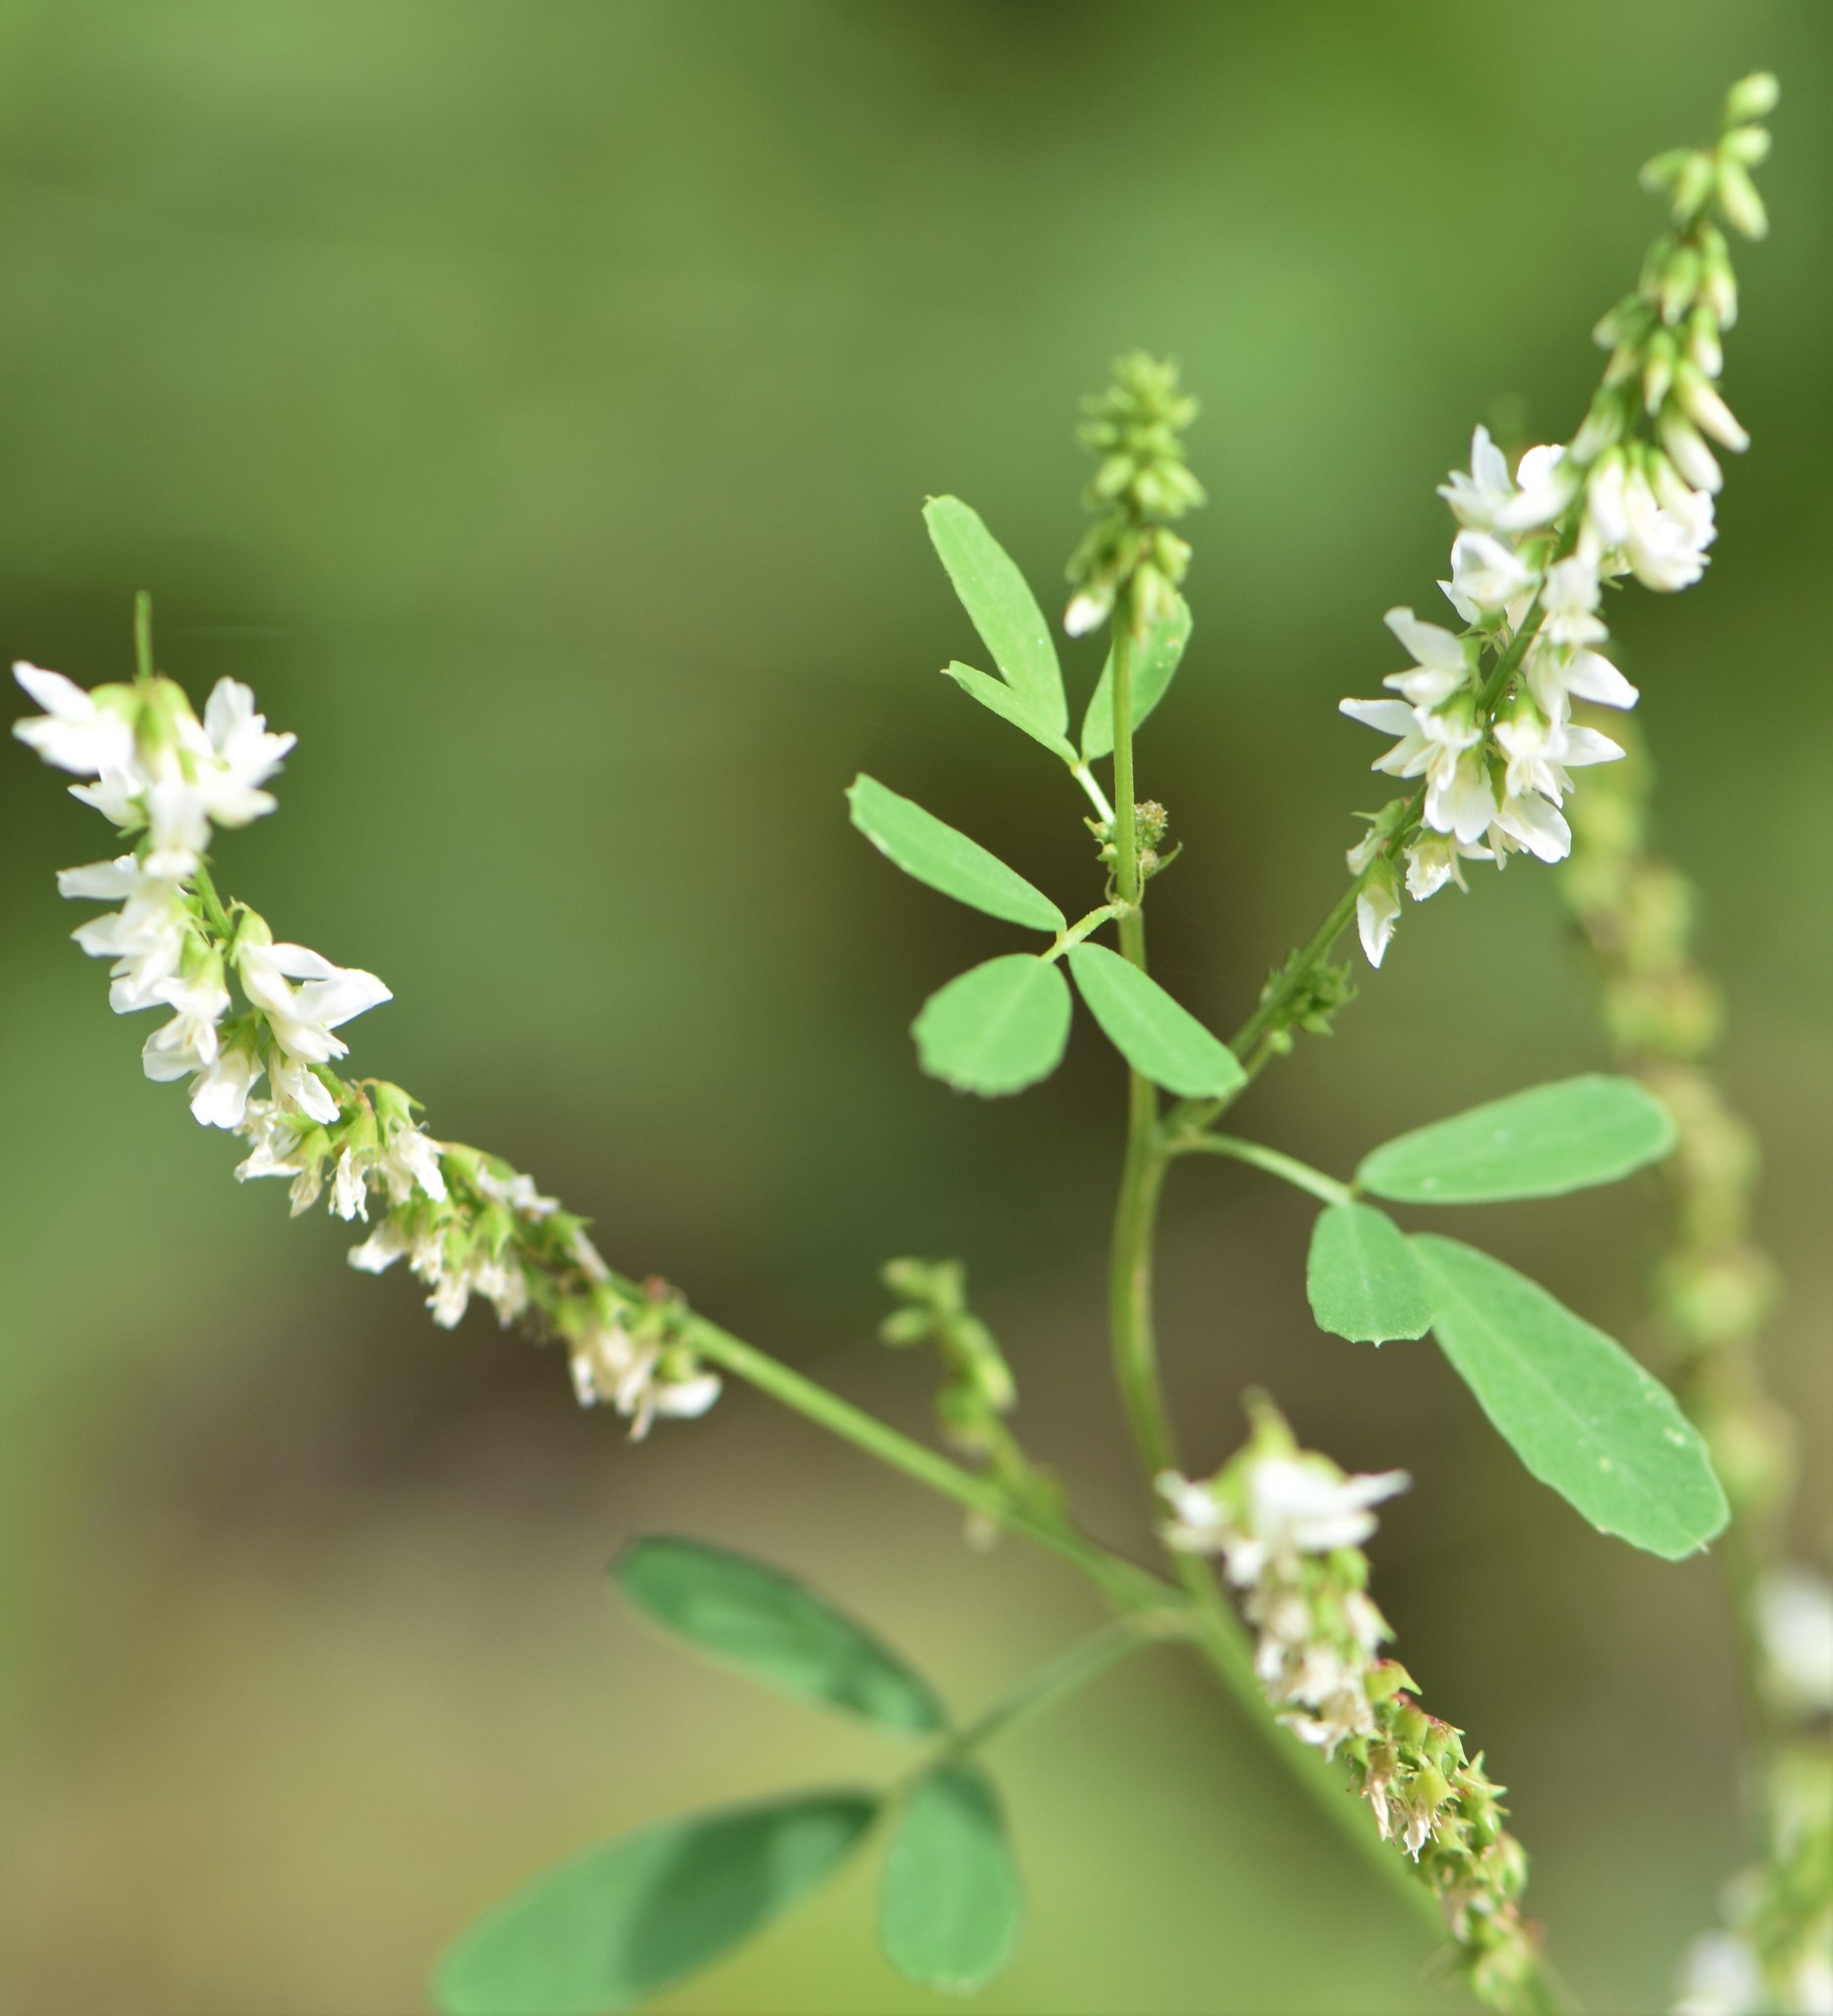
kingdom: Plantae
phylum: Tracheophyta
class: Magnoliopsida
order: Fabales
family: Fabaceae
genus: Melilotus
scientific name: Melilotus albus
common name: White melilot
